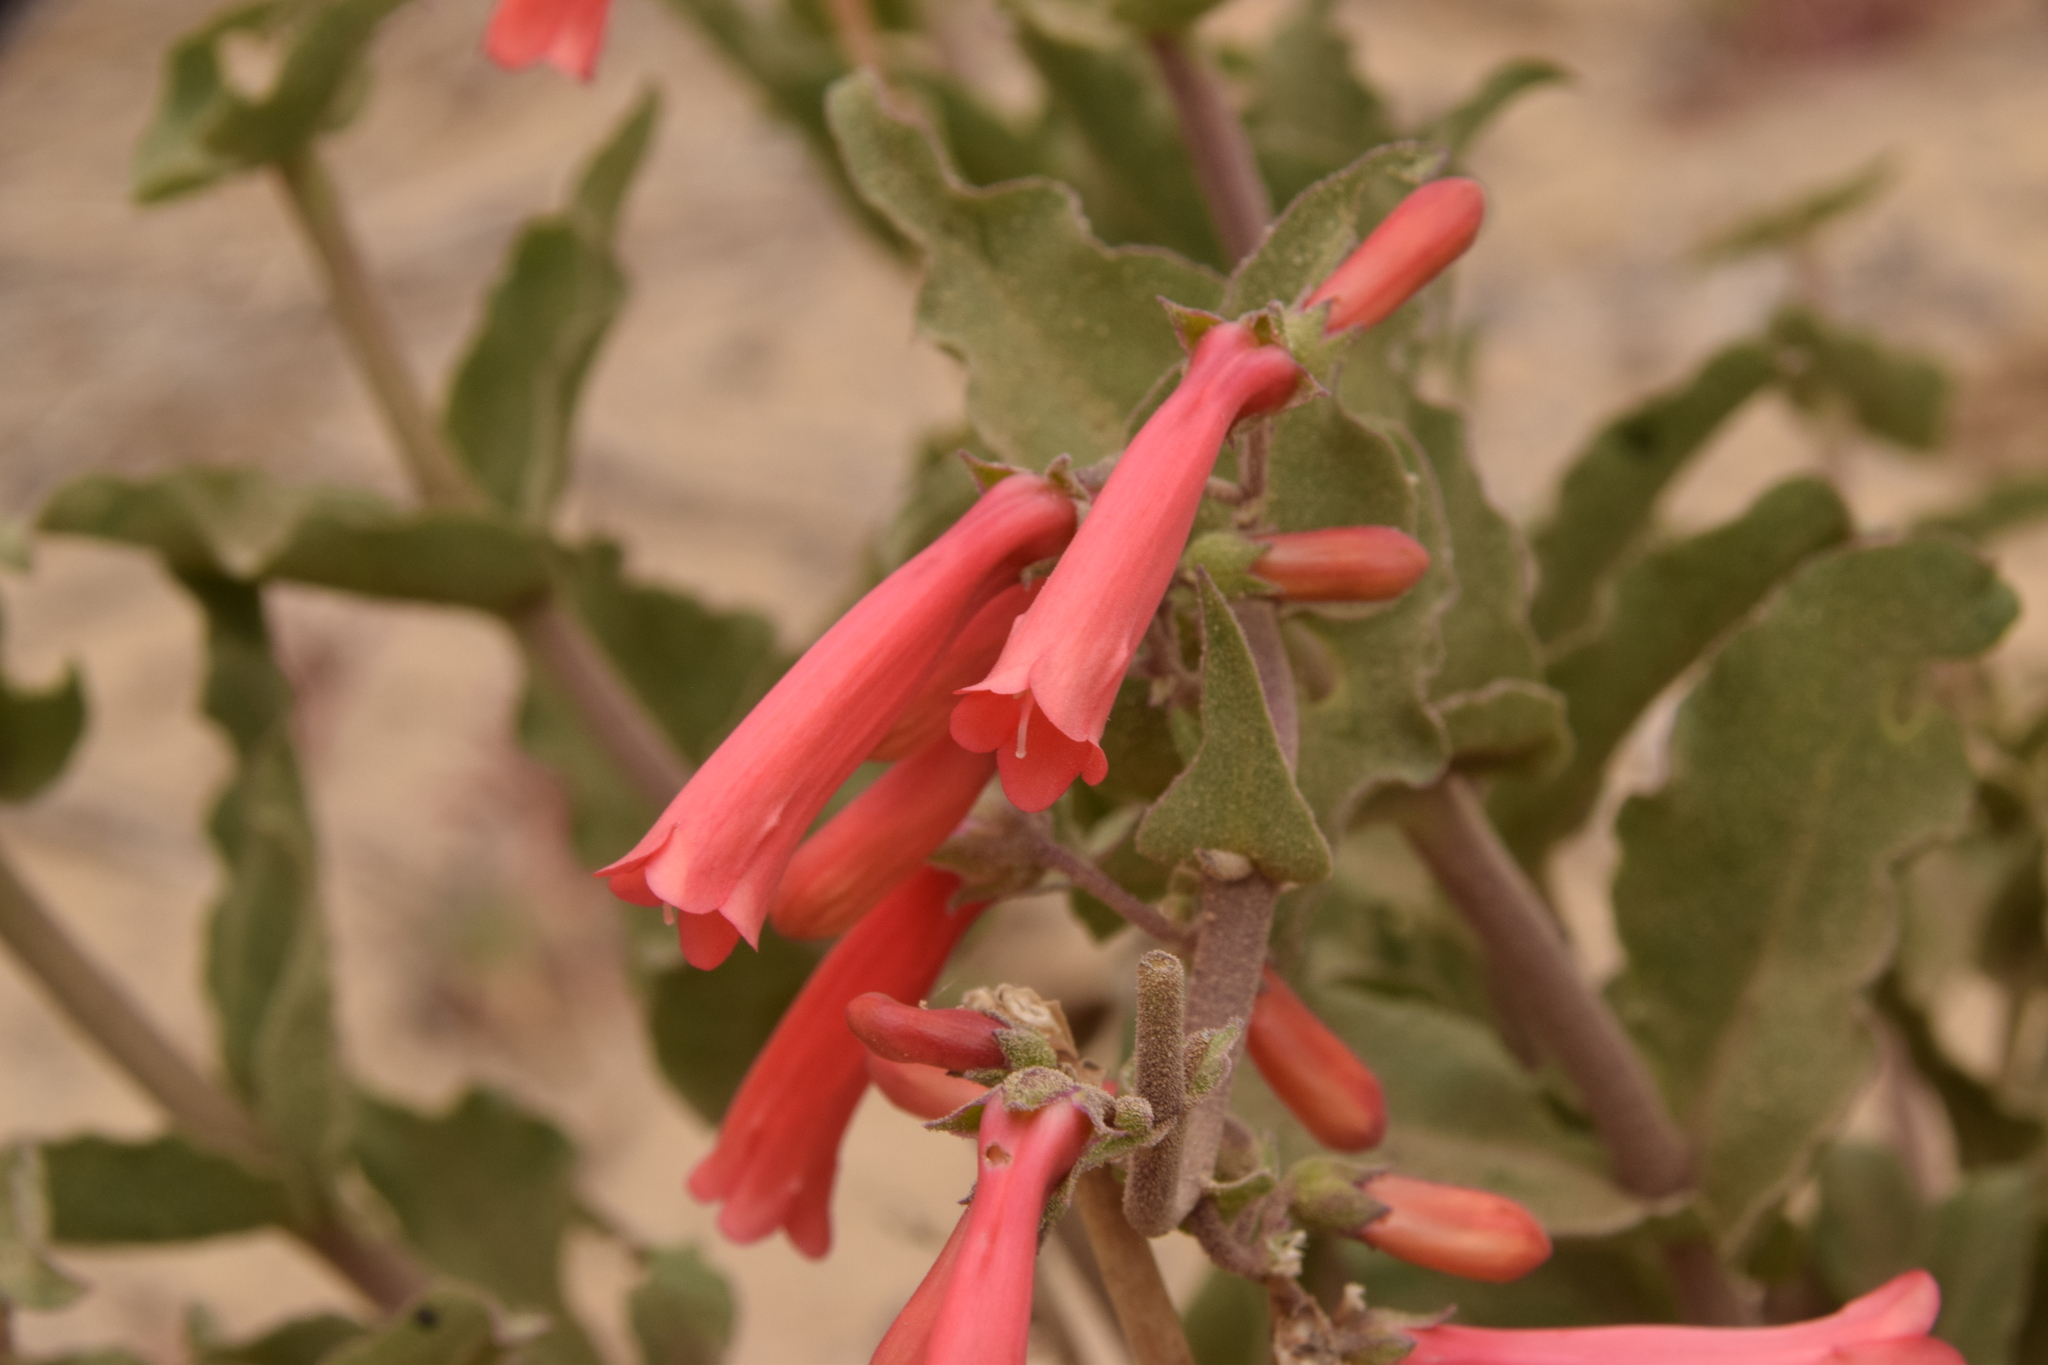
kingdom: Plantae
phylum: Tracheophyta
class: Magnoliopsida
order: Lamiales
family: Plantaginaceae
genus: Penstemon
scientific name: Penstemon eatonii
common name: Eaton's penstemon
